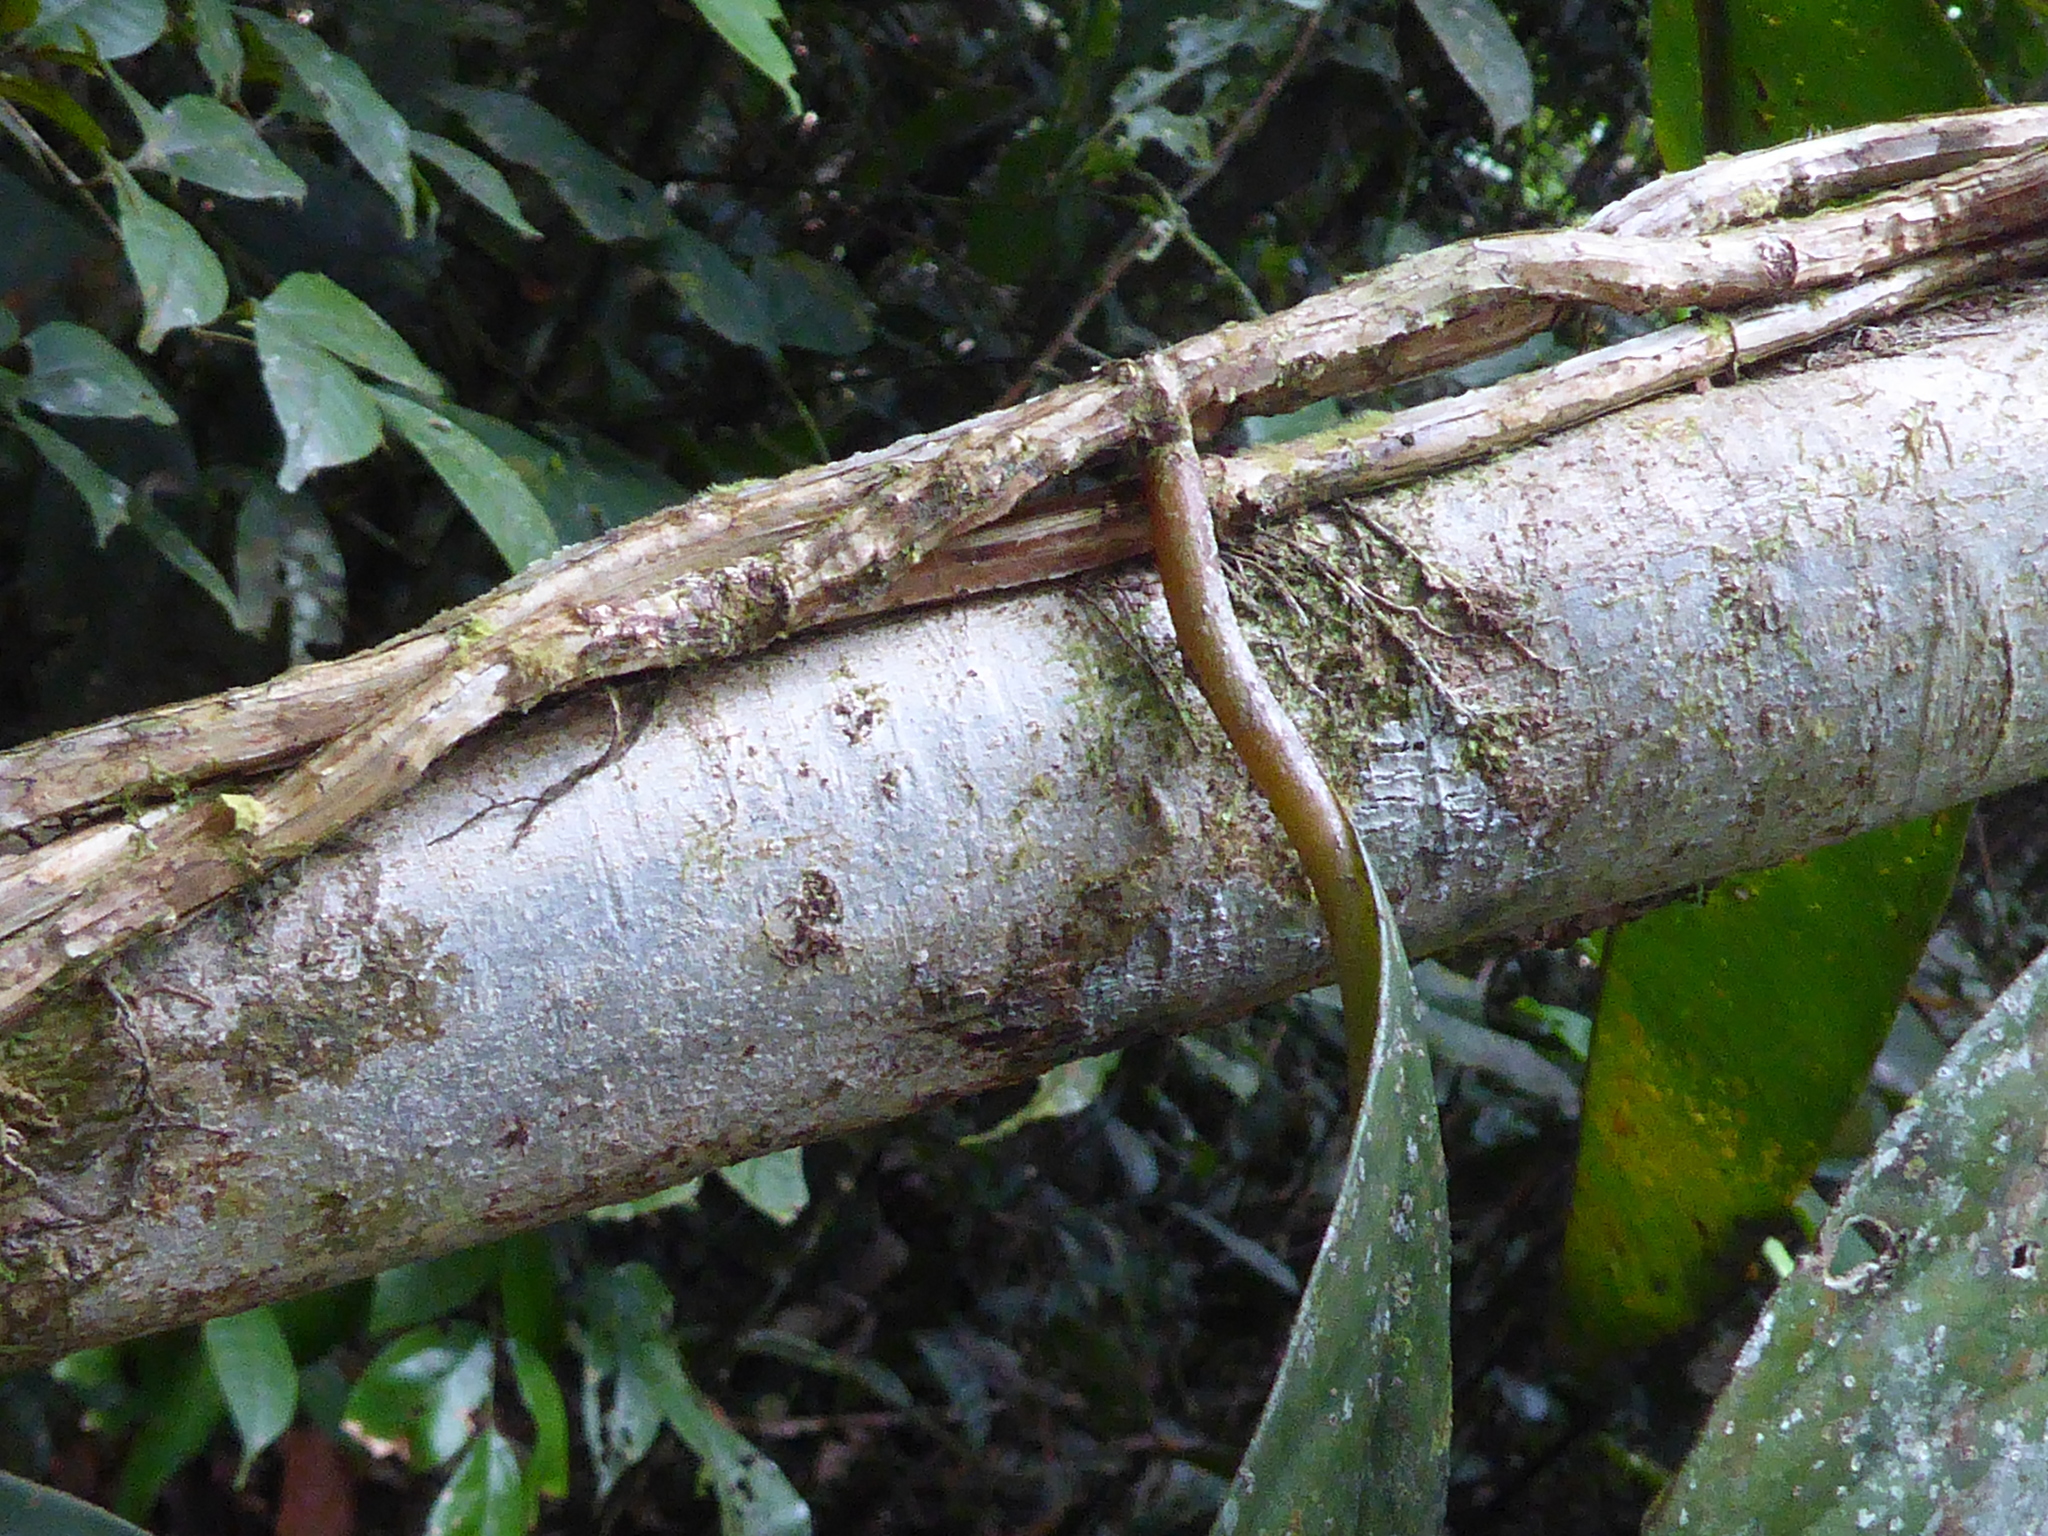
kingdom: Plantae
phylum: Tracheophyta
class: Magnoliopsida
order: Lamiales
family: Gesneriaceae
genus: Drymonia
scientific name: Drymonia coccinea
